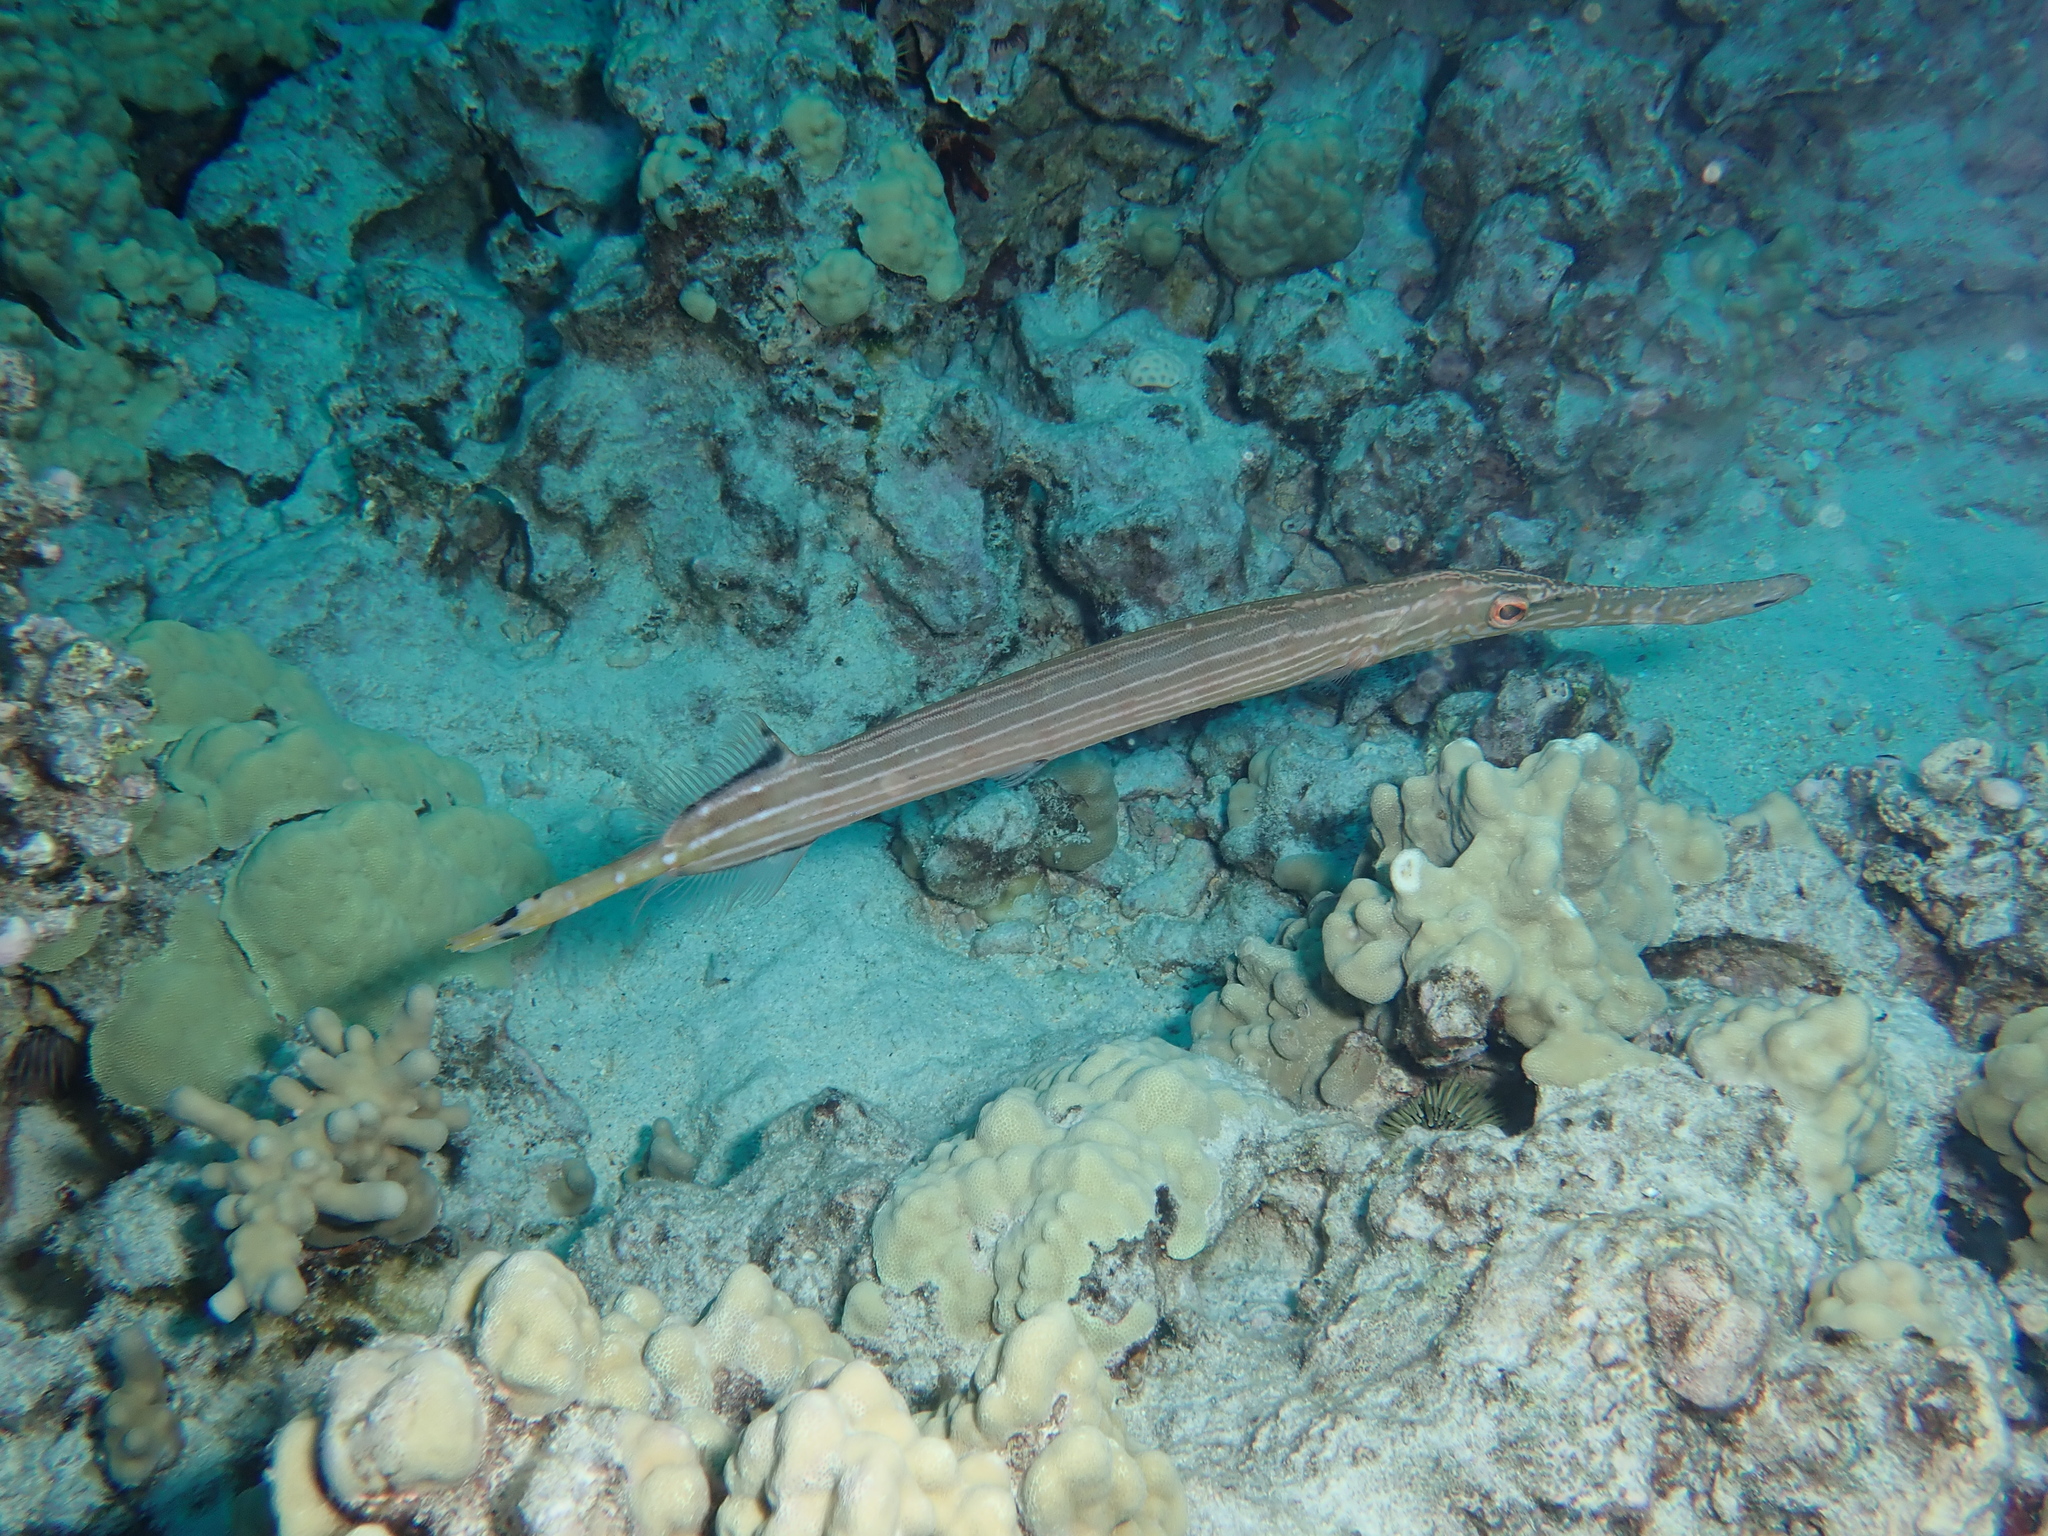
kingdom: Animalia
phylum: Chordata
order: Syngnathiformes
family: Aulostomidae
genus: Aulostomus
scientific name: Aulostomus chinensis
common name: Chinese trumpetfish
